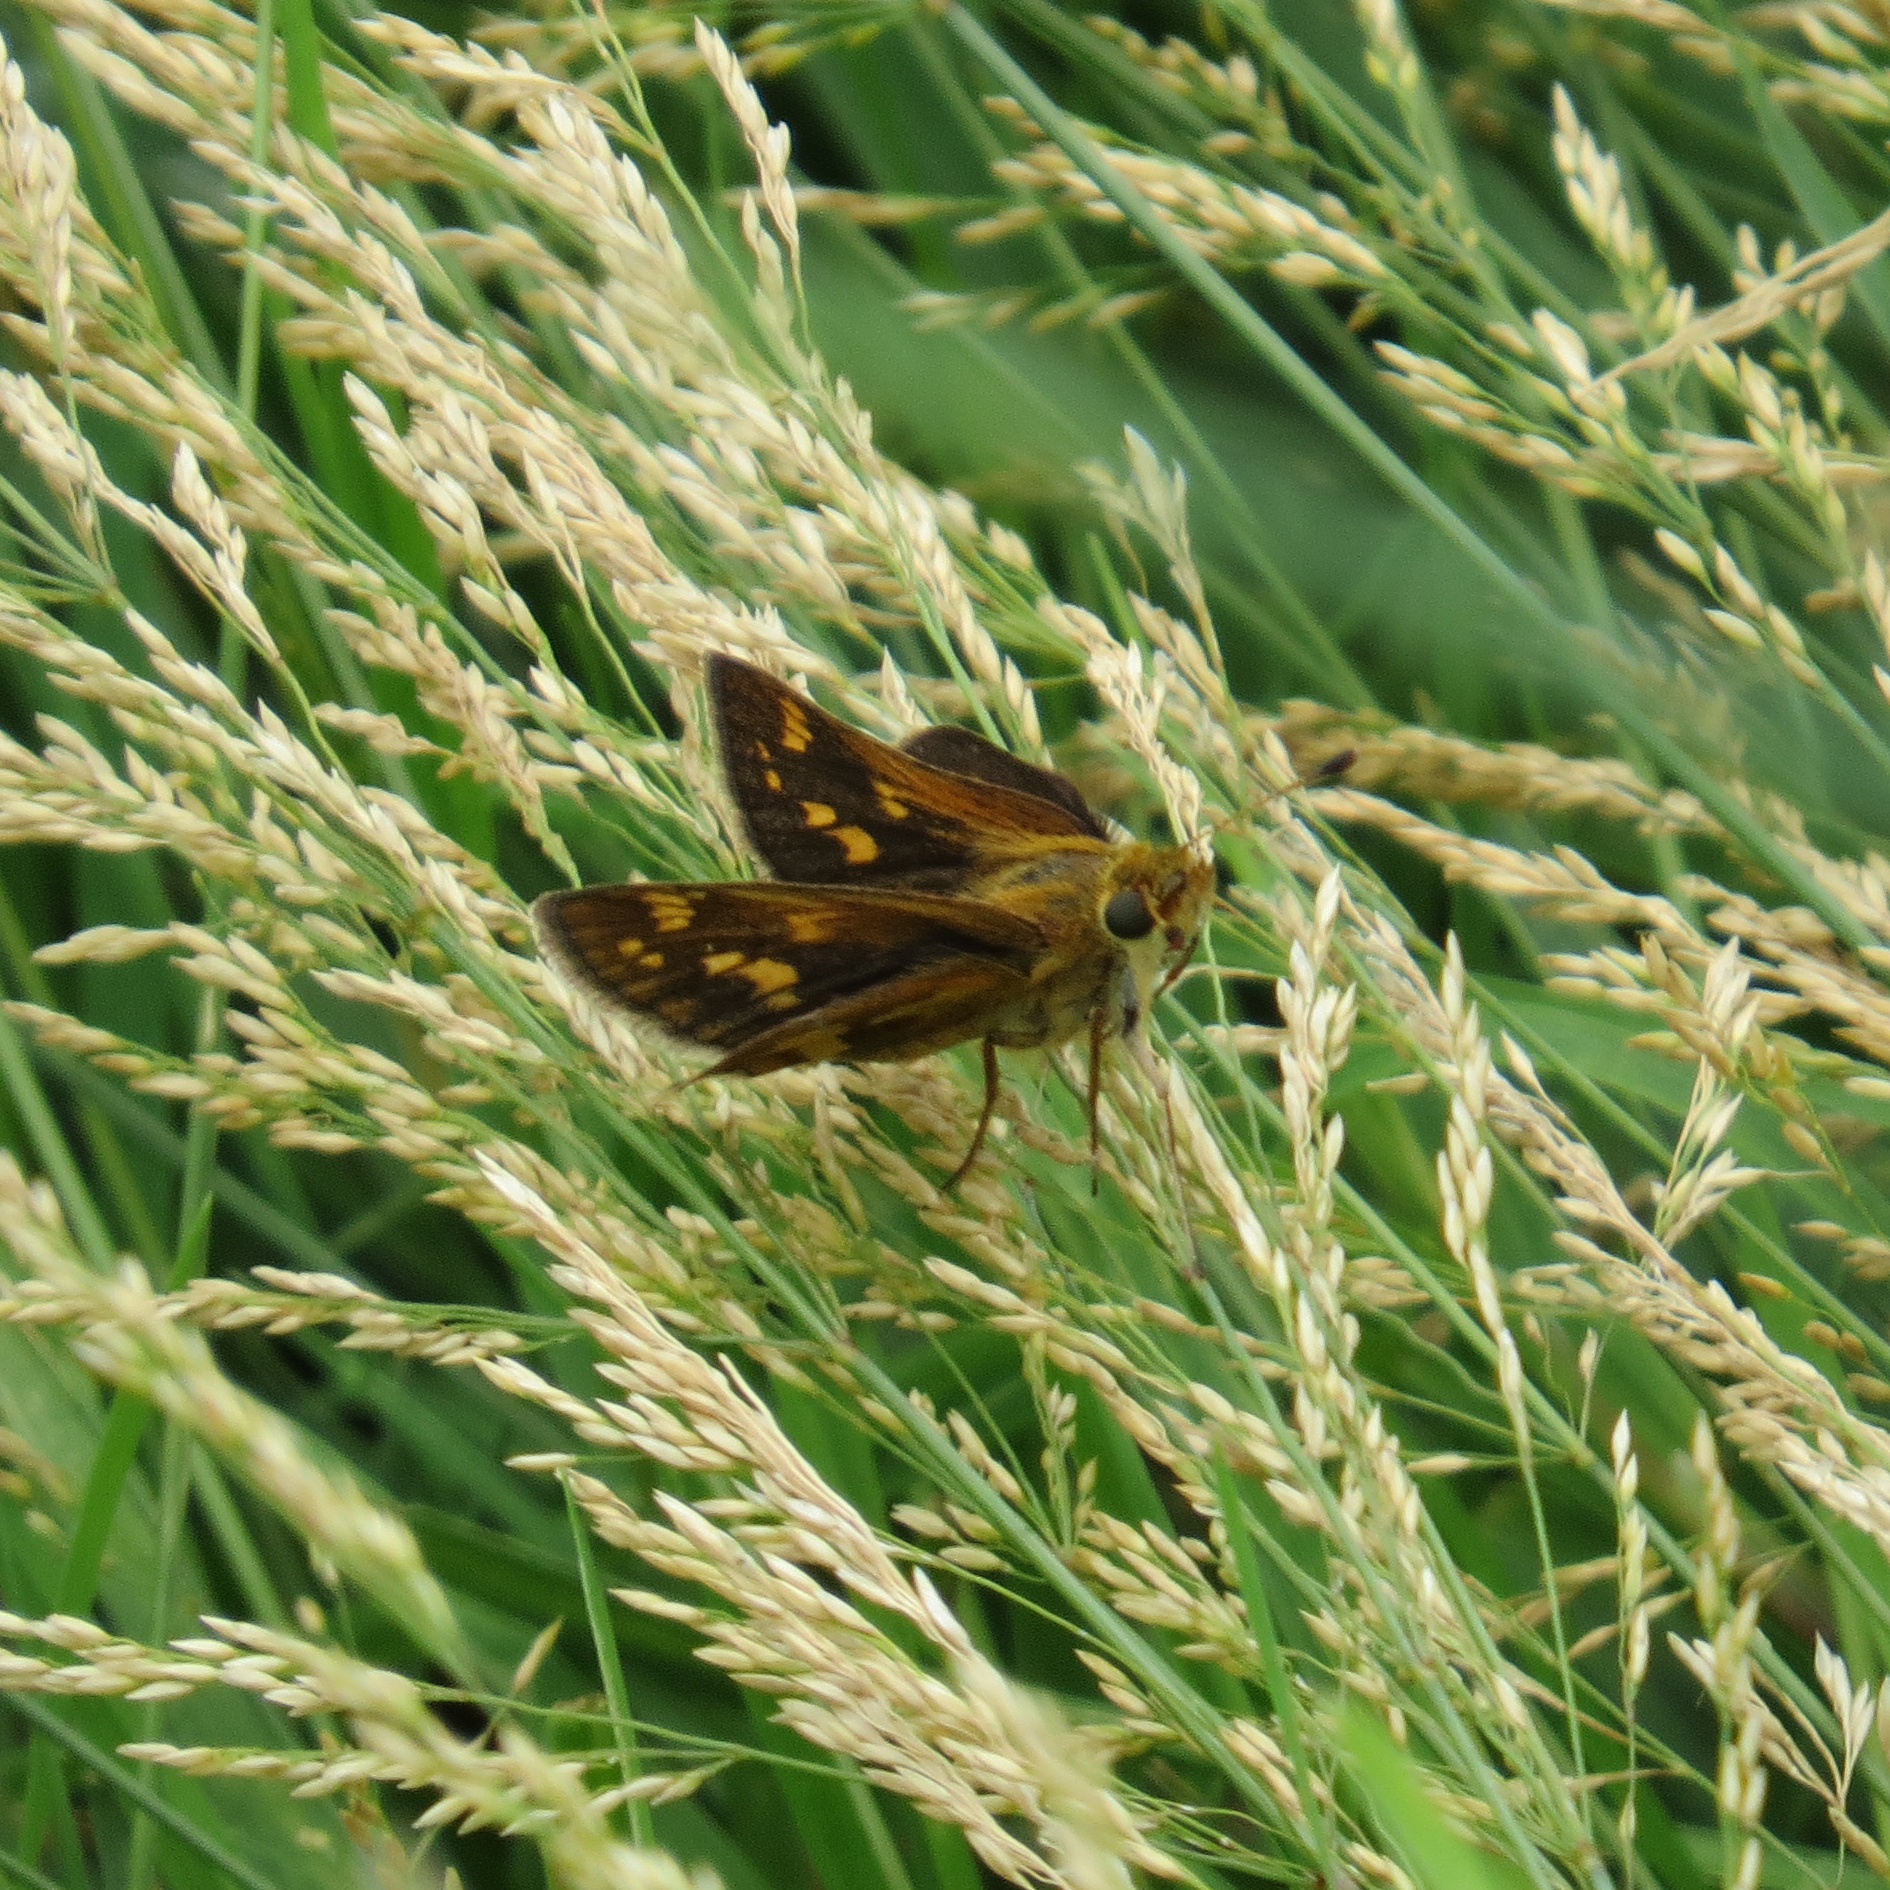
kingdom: Animalia
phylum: Arthropoda
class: Insecta
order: Lepidoptera
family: Hesperiidae
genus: Polites
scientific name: Polites coras
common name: Peck's skipper
